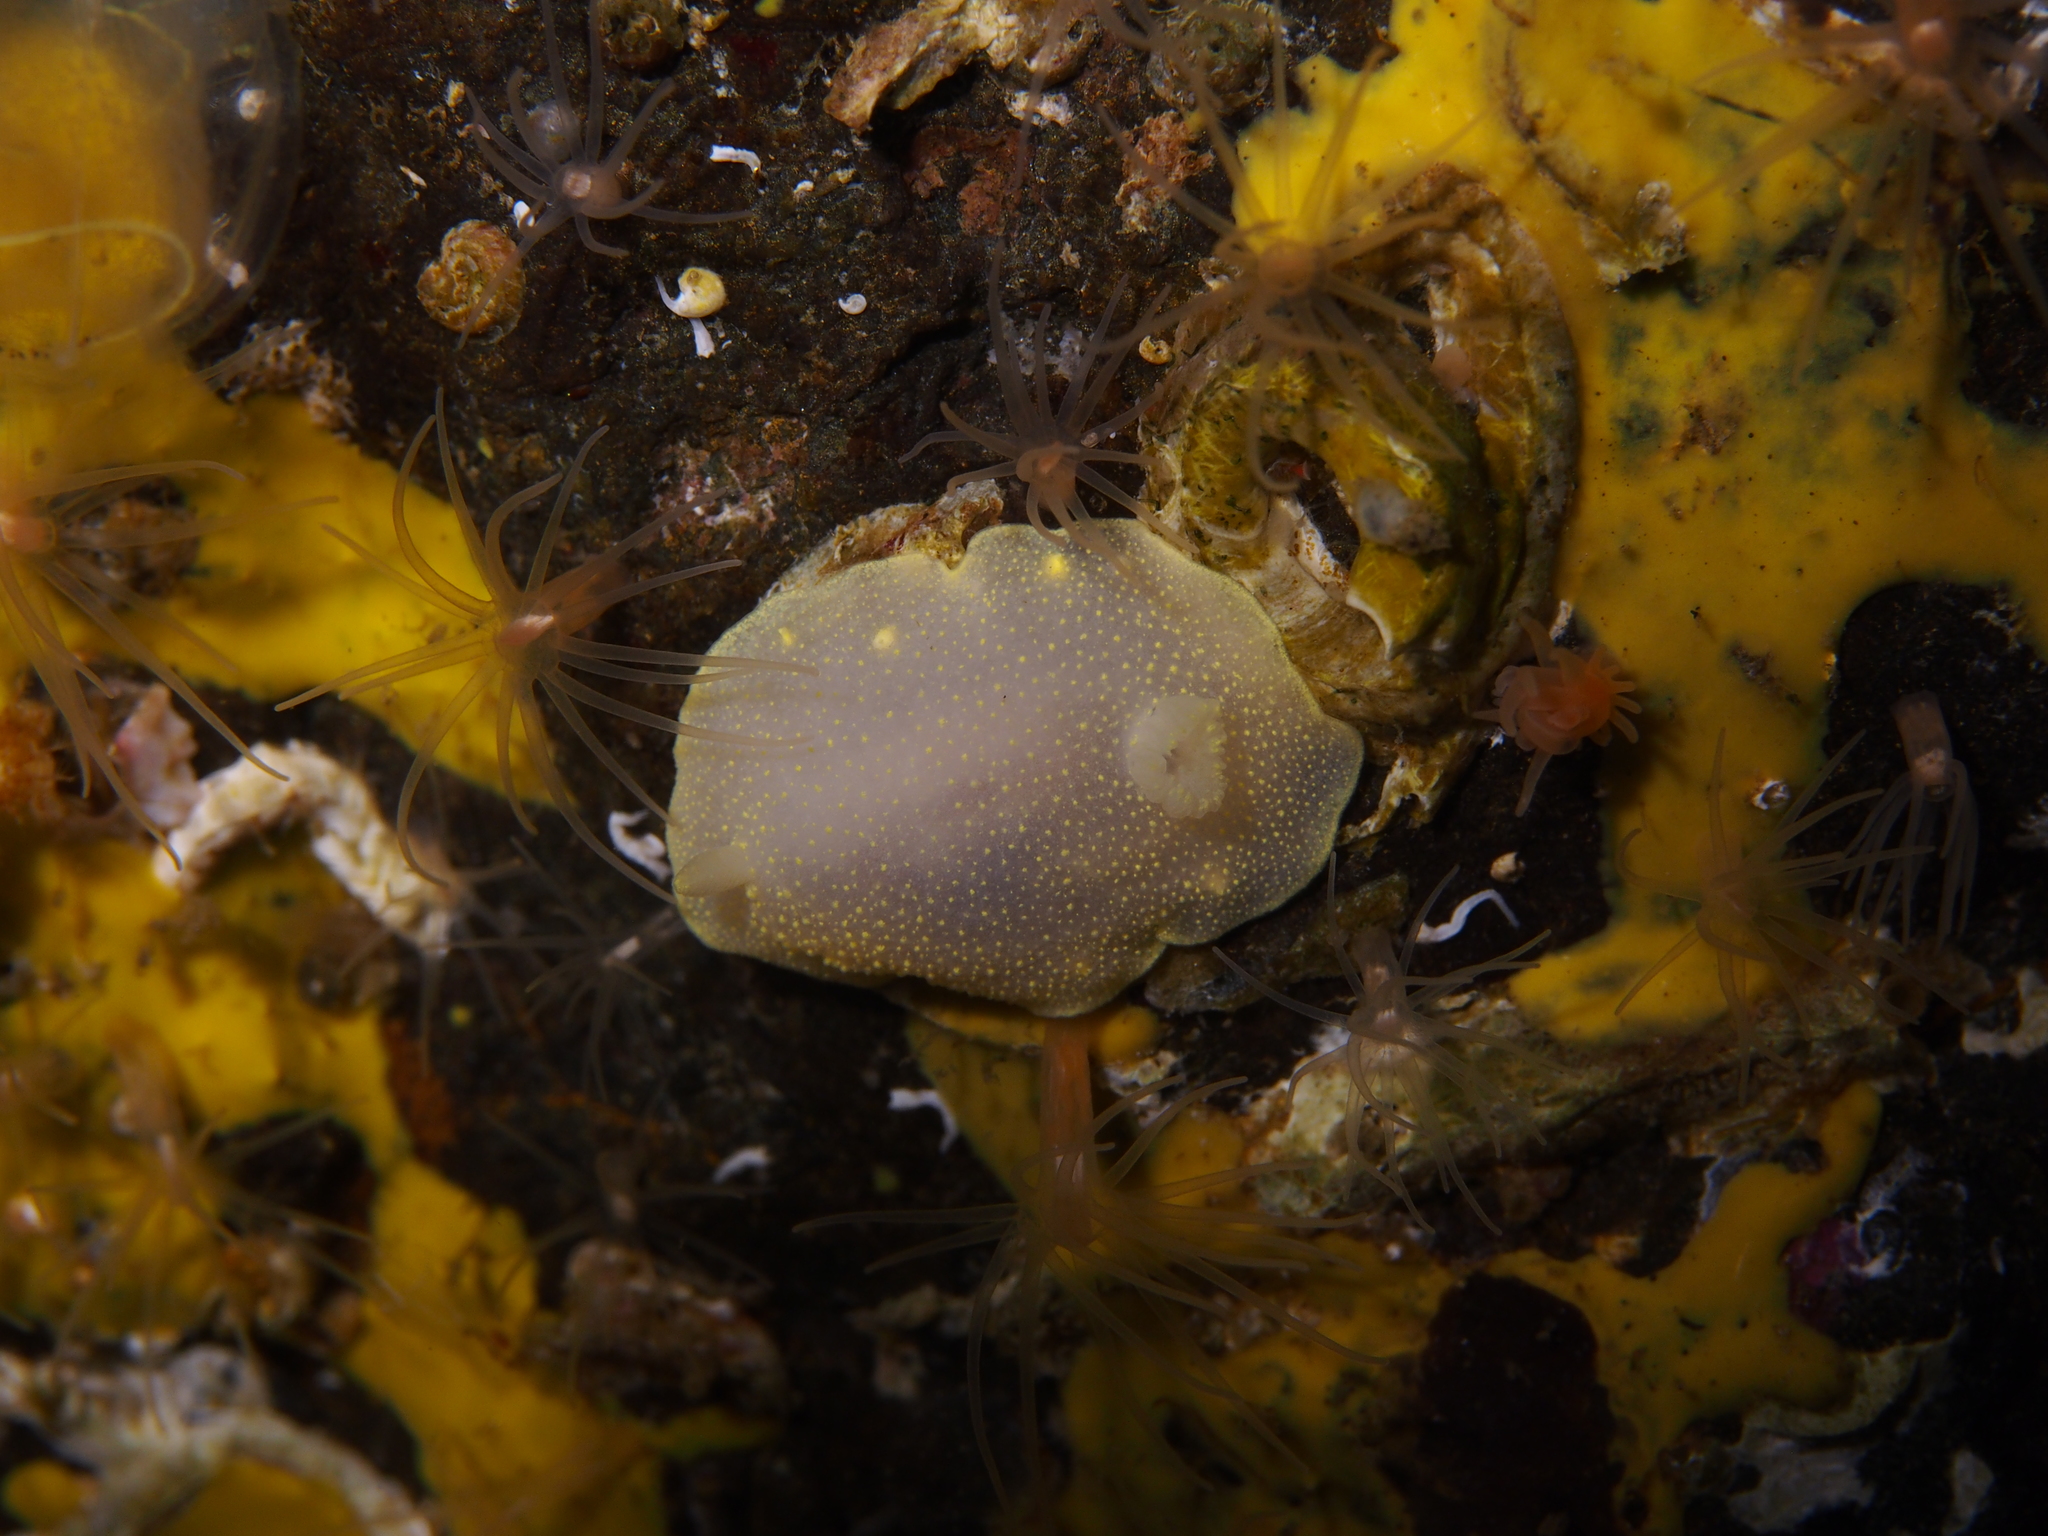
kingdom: Animalia
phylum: Mollusca
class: Gastropoda
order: Nudibranchia
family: Cadlinidae
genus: Cadlina
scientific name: Cadlina laevis
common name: White atlantic cadlina
